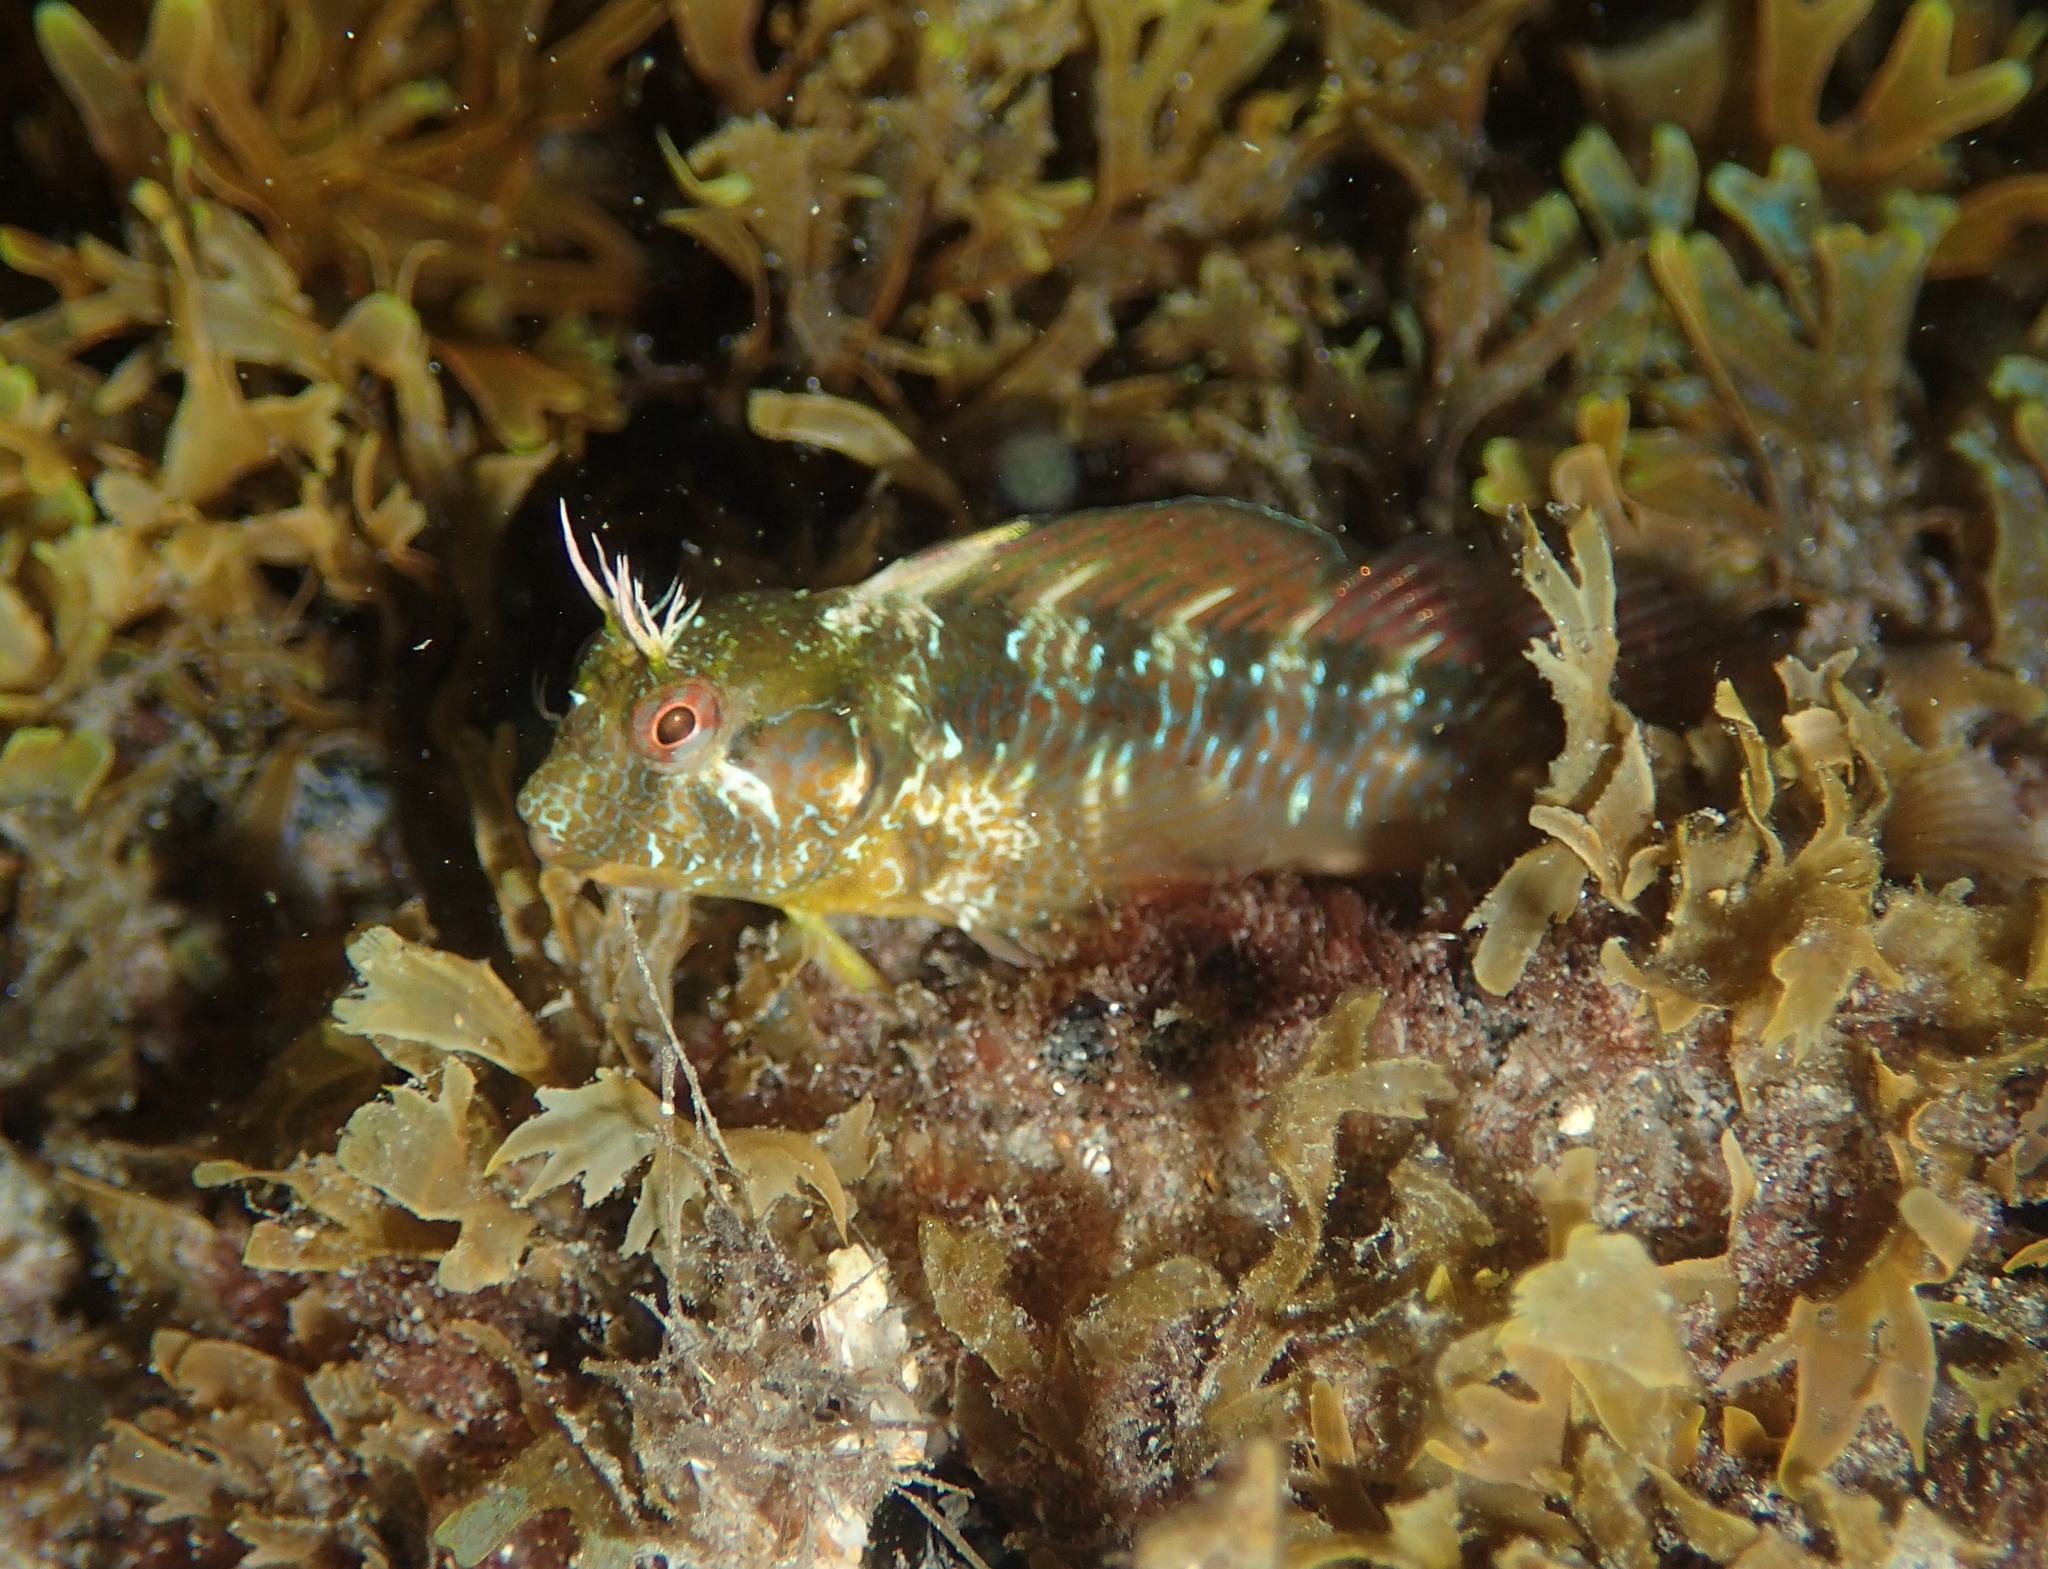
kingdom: Animalia
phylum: Chordata
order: Perciformes
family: Blenniidae
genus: Parablennius
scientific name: Parablennius incognitus
